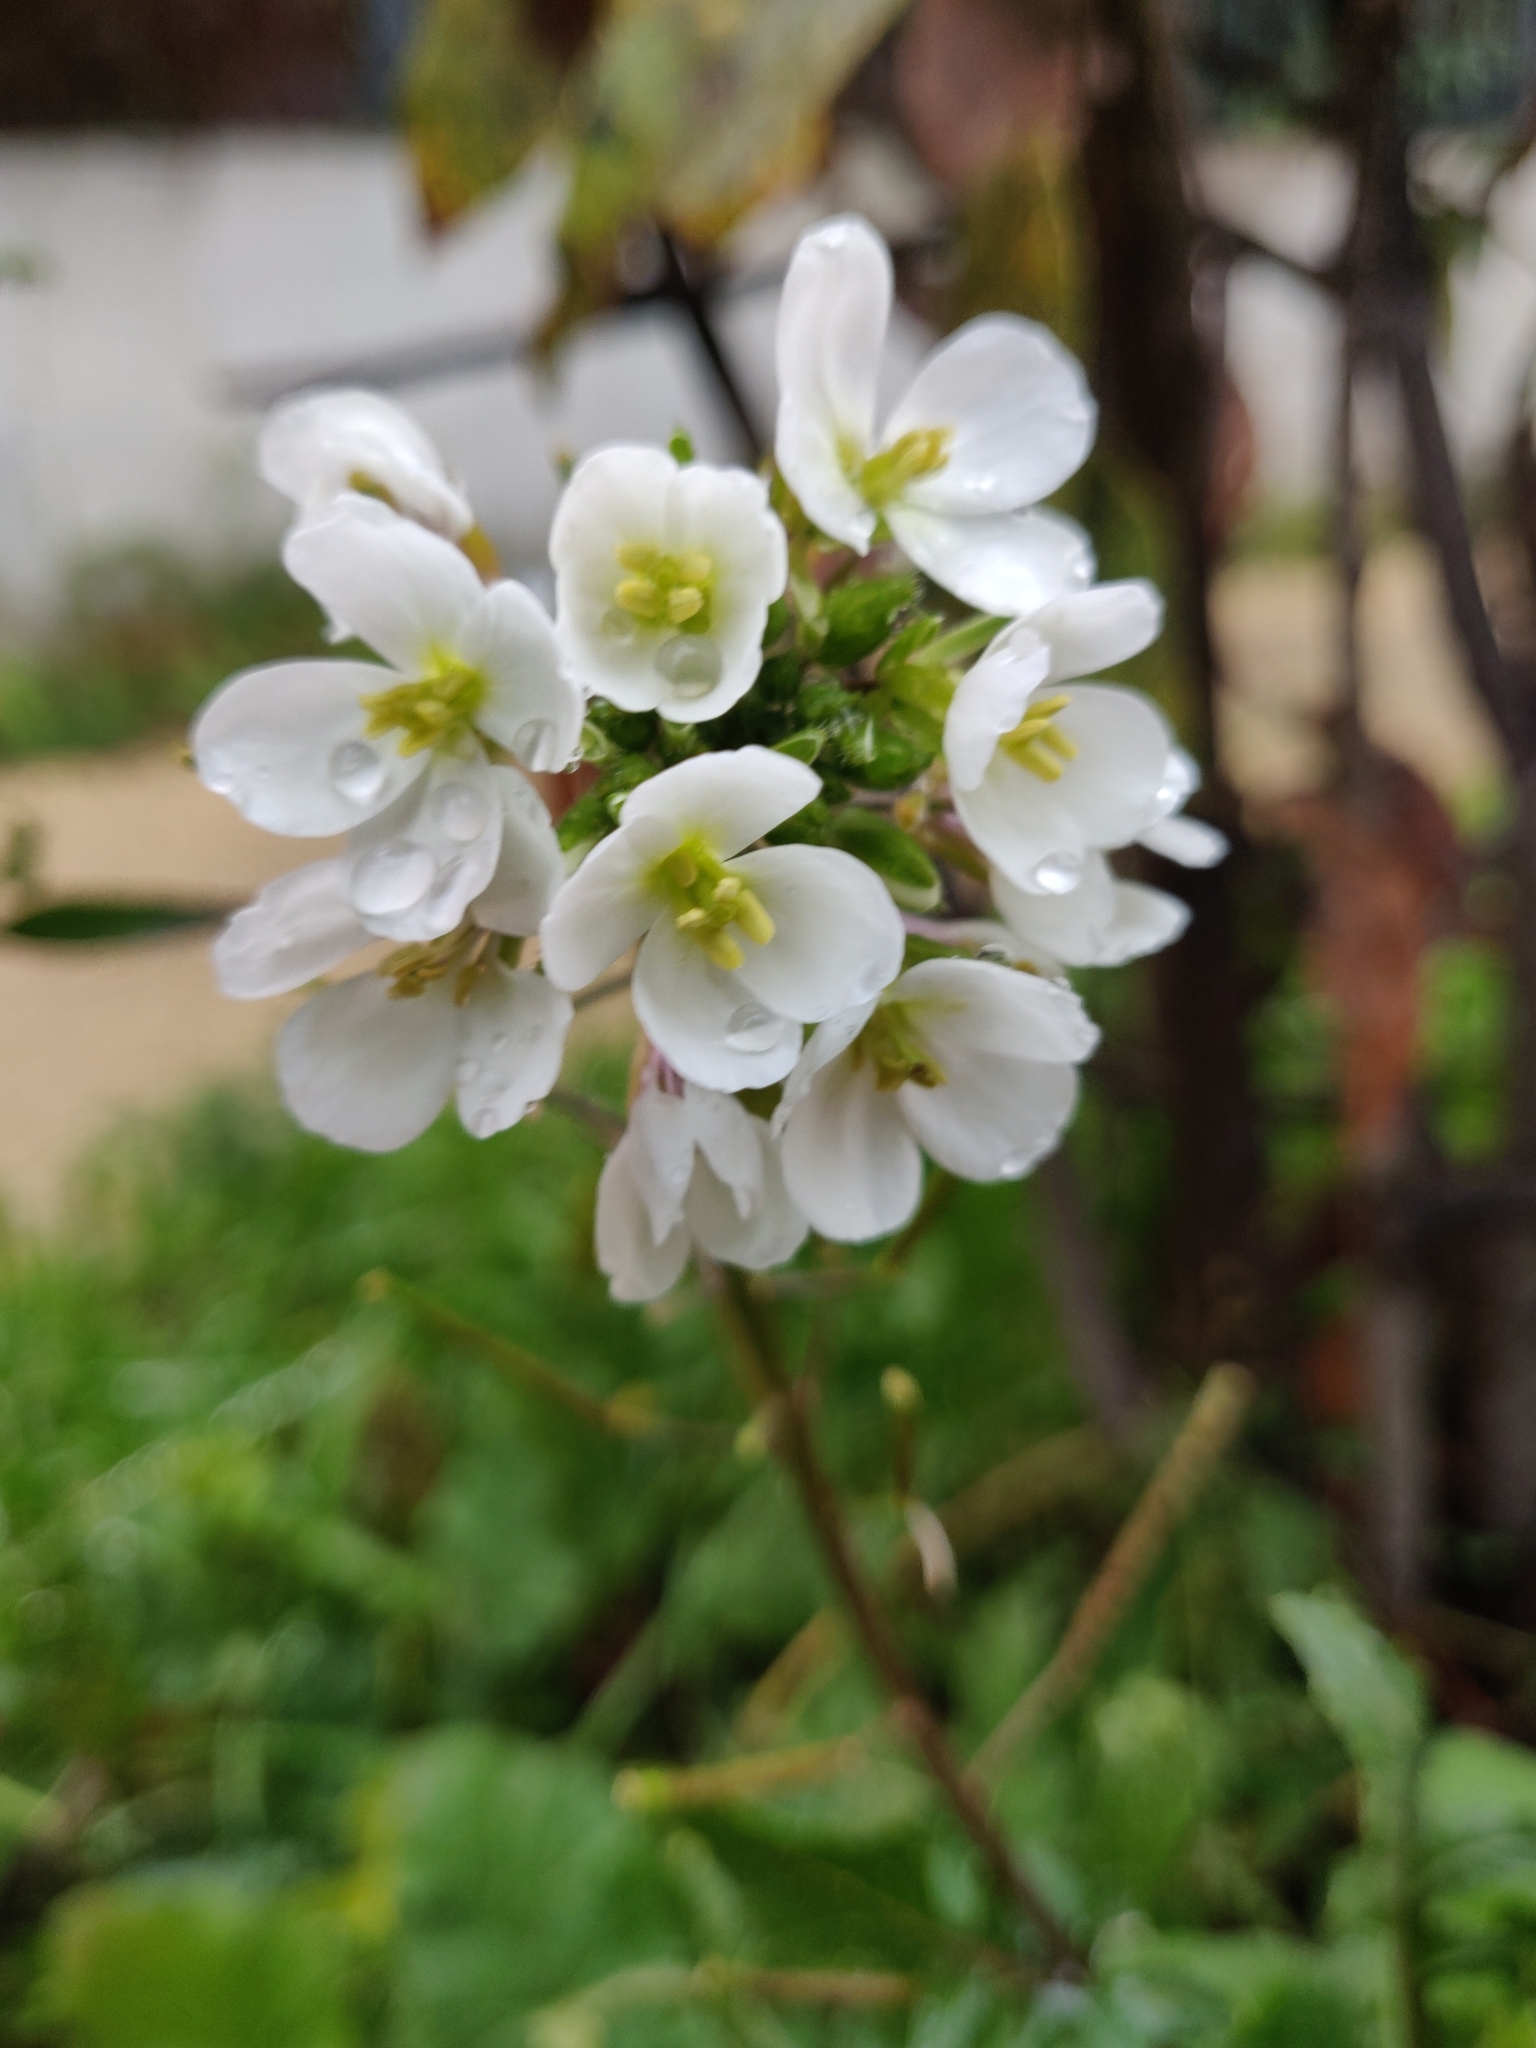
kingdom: Plantae
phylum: Tracheophyta
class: Magnoliopsida
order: Brassicales
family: Brassicaceae
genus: Diplotaxis
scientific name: Diplotaxis erucoides
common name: White rocket
